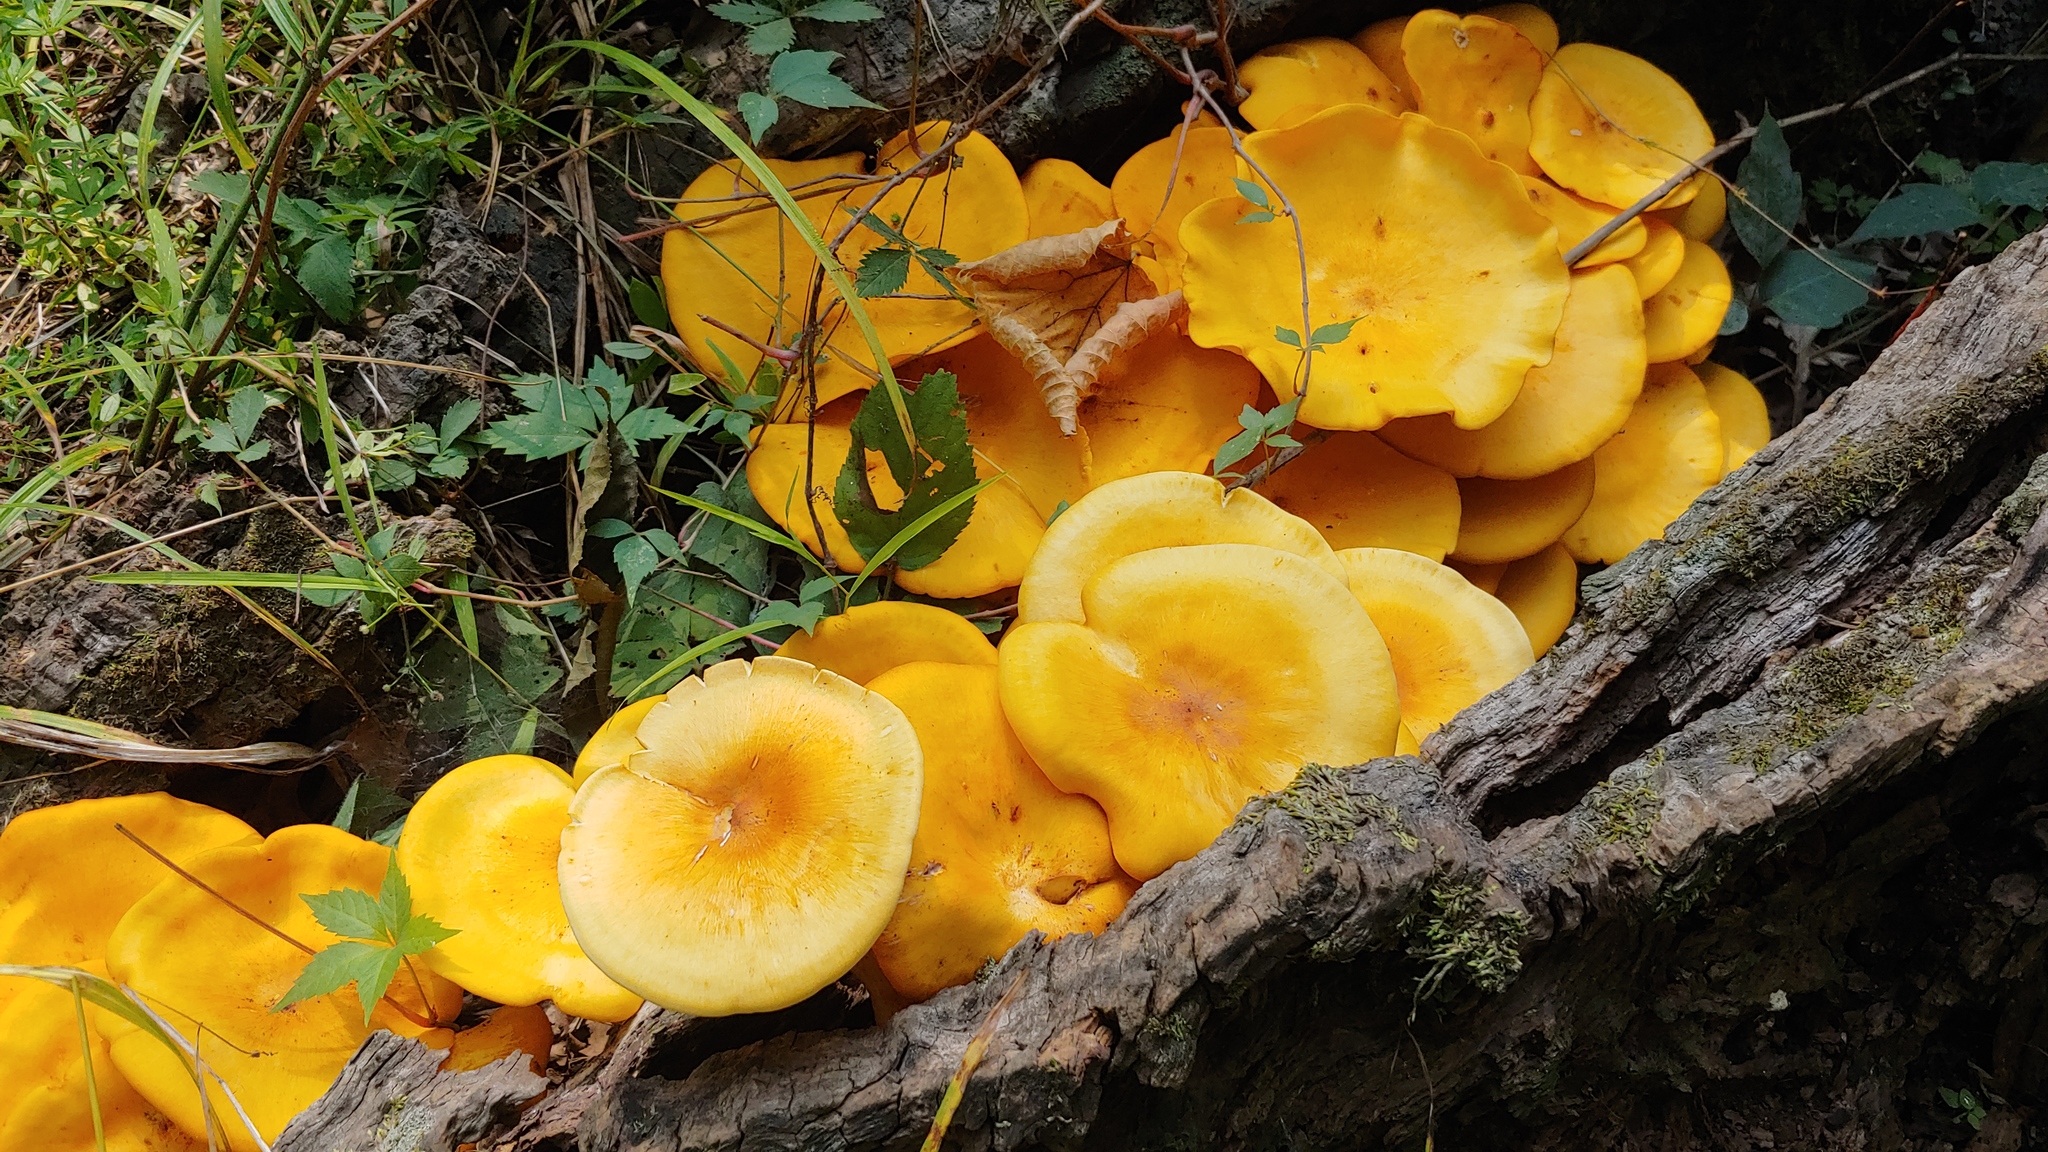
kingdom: Fungi
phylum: Basidiomycota
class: Agaricomycetes
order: Agaricales
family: Omphalotaceae
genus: Omphalotus
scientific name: Omphalotus illudens
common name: Jack o lantern
